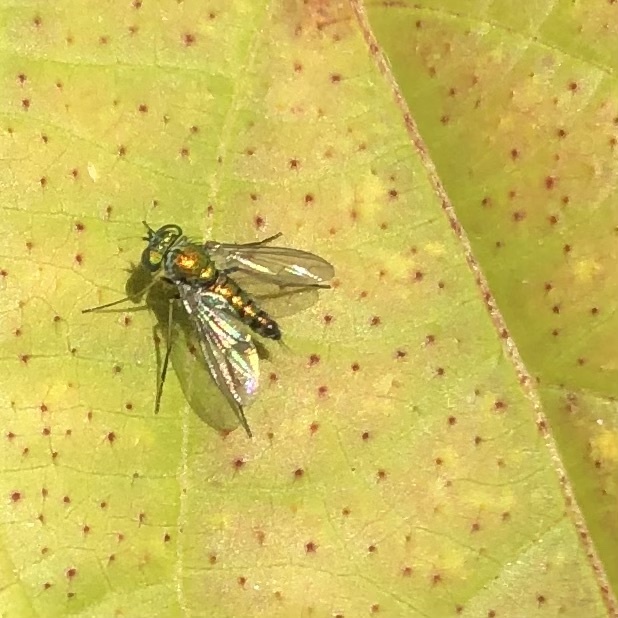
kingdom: Animalia
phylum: Arthropoda
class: Insecta
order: Diptera
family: Dolichopodidae
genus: Condylostylus
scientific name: Condylostylus caudatus
